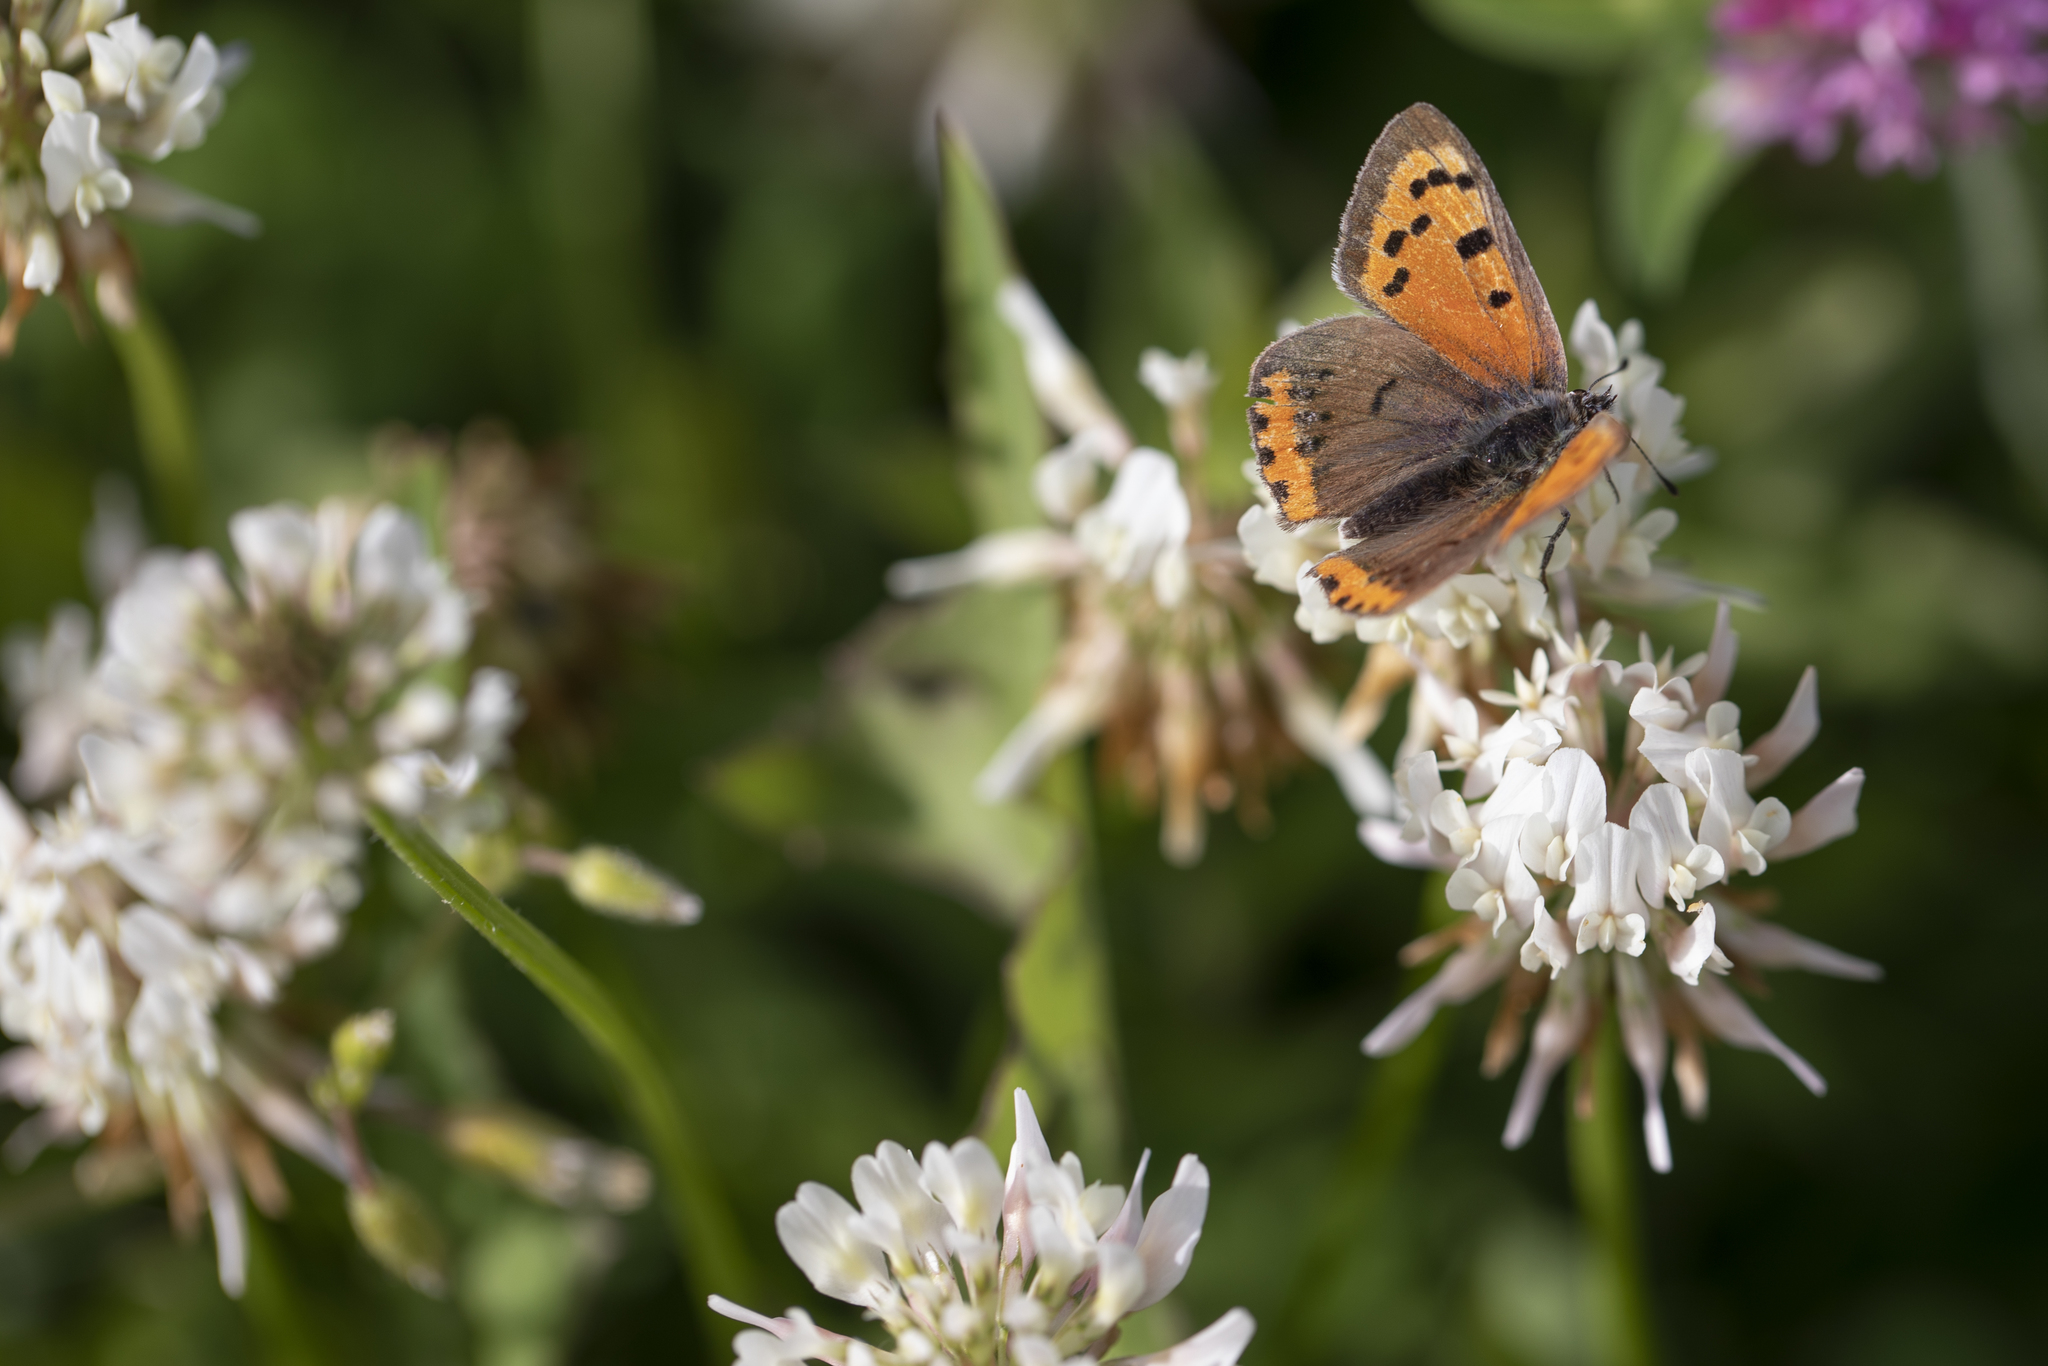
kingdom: Plantae
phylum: Tracheophyta
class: Magnoliopsida
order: Fabales
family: Fabaceae
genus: Trifolium
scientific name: Trifolium repens
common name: White clover
